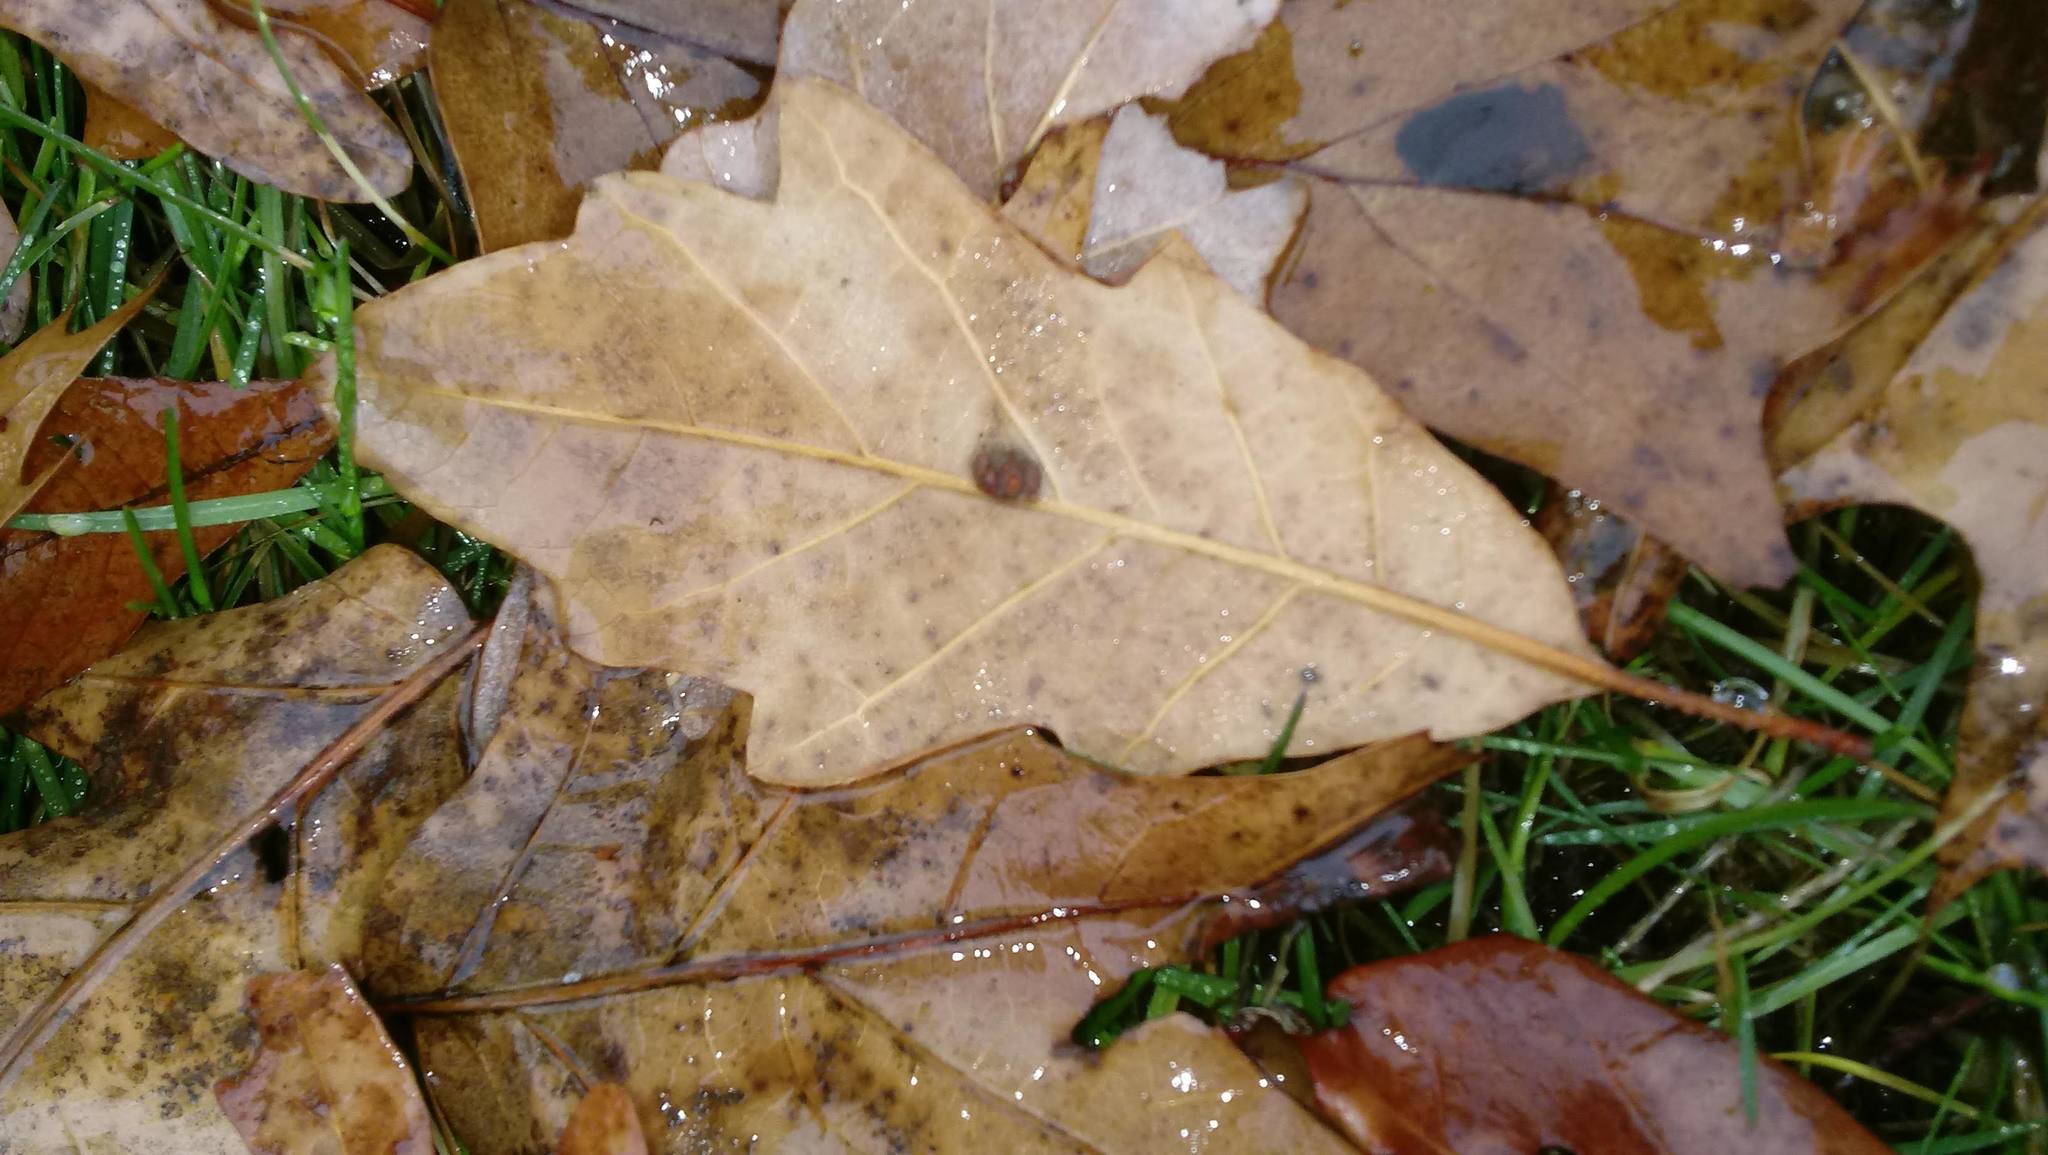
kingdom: Animalia
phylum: Arthropoda
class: Insecta
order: Hymenoptera
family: Cynipidae
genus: Andricus
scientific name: Andricus Druon ignotum
